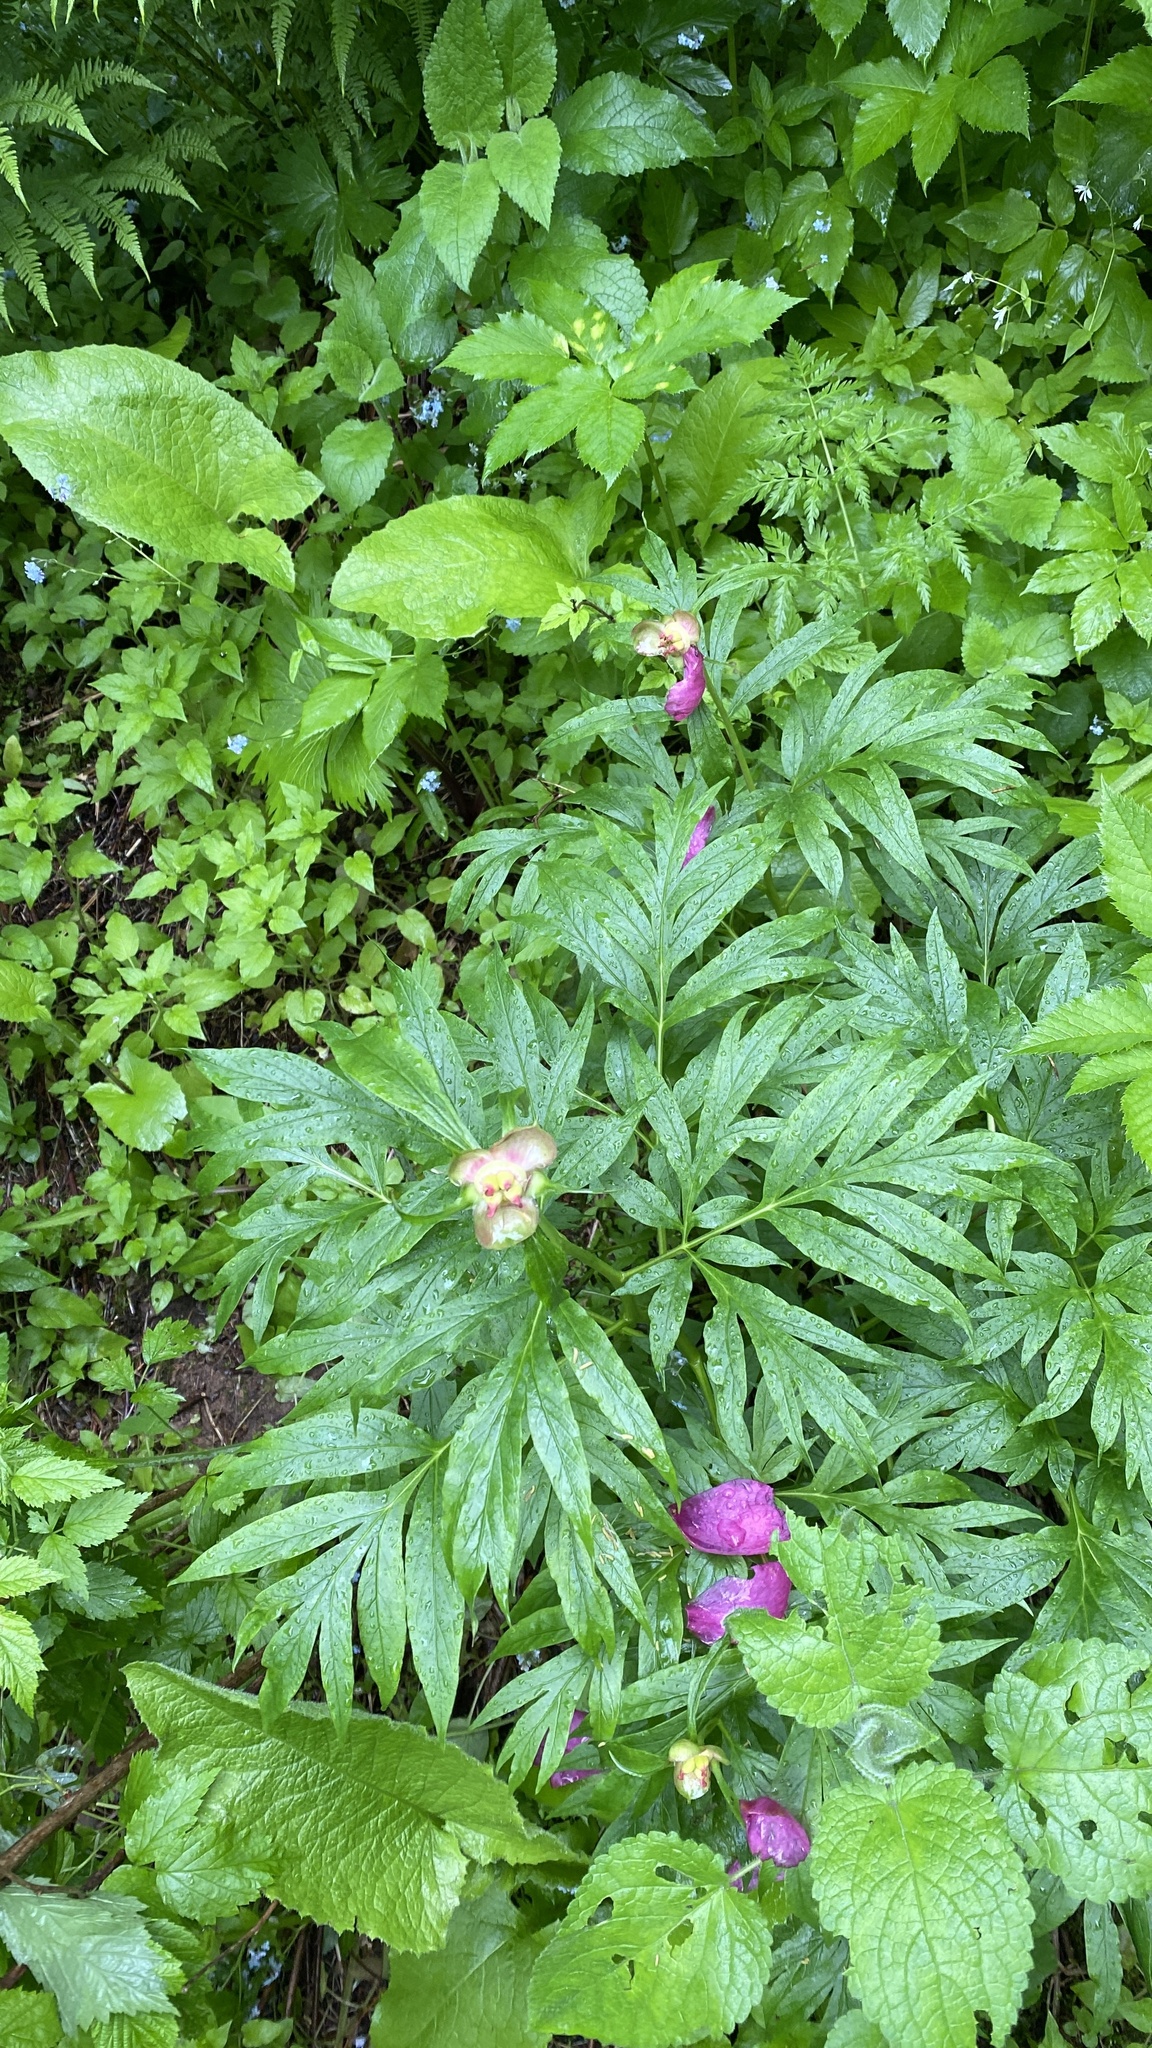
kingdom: Plantae
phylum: Tracheophyta
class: Magnoliopsida
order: Saxifragales
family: Paeoniaceae
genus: Paeonia
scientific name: Paeonia anomala
